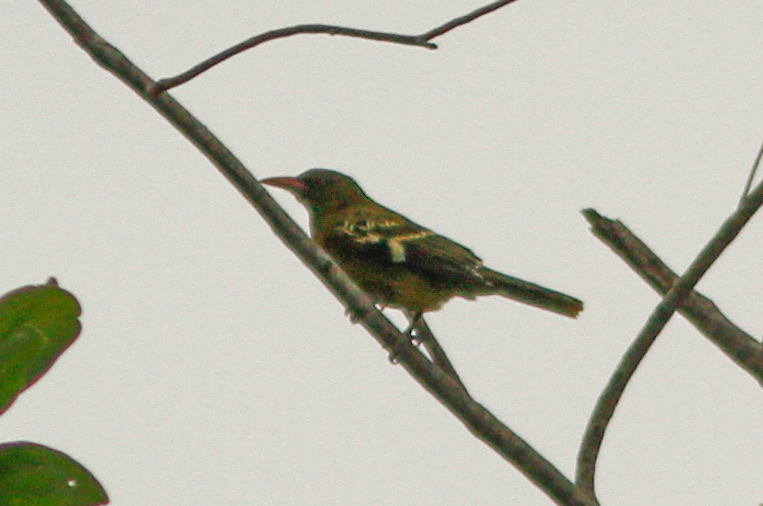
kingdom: Animalia
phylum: Chordata
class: Aves
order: Passeriformes
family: Oriolidae
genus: Oriolus
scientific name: Oriolus flavocinctus
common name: Green oriole
